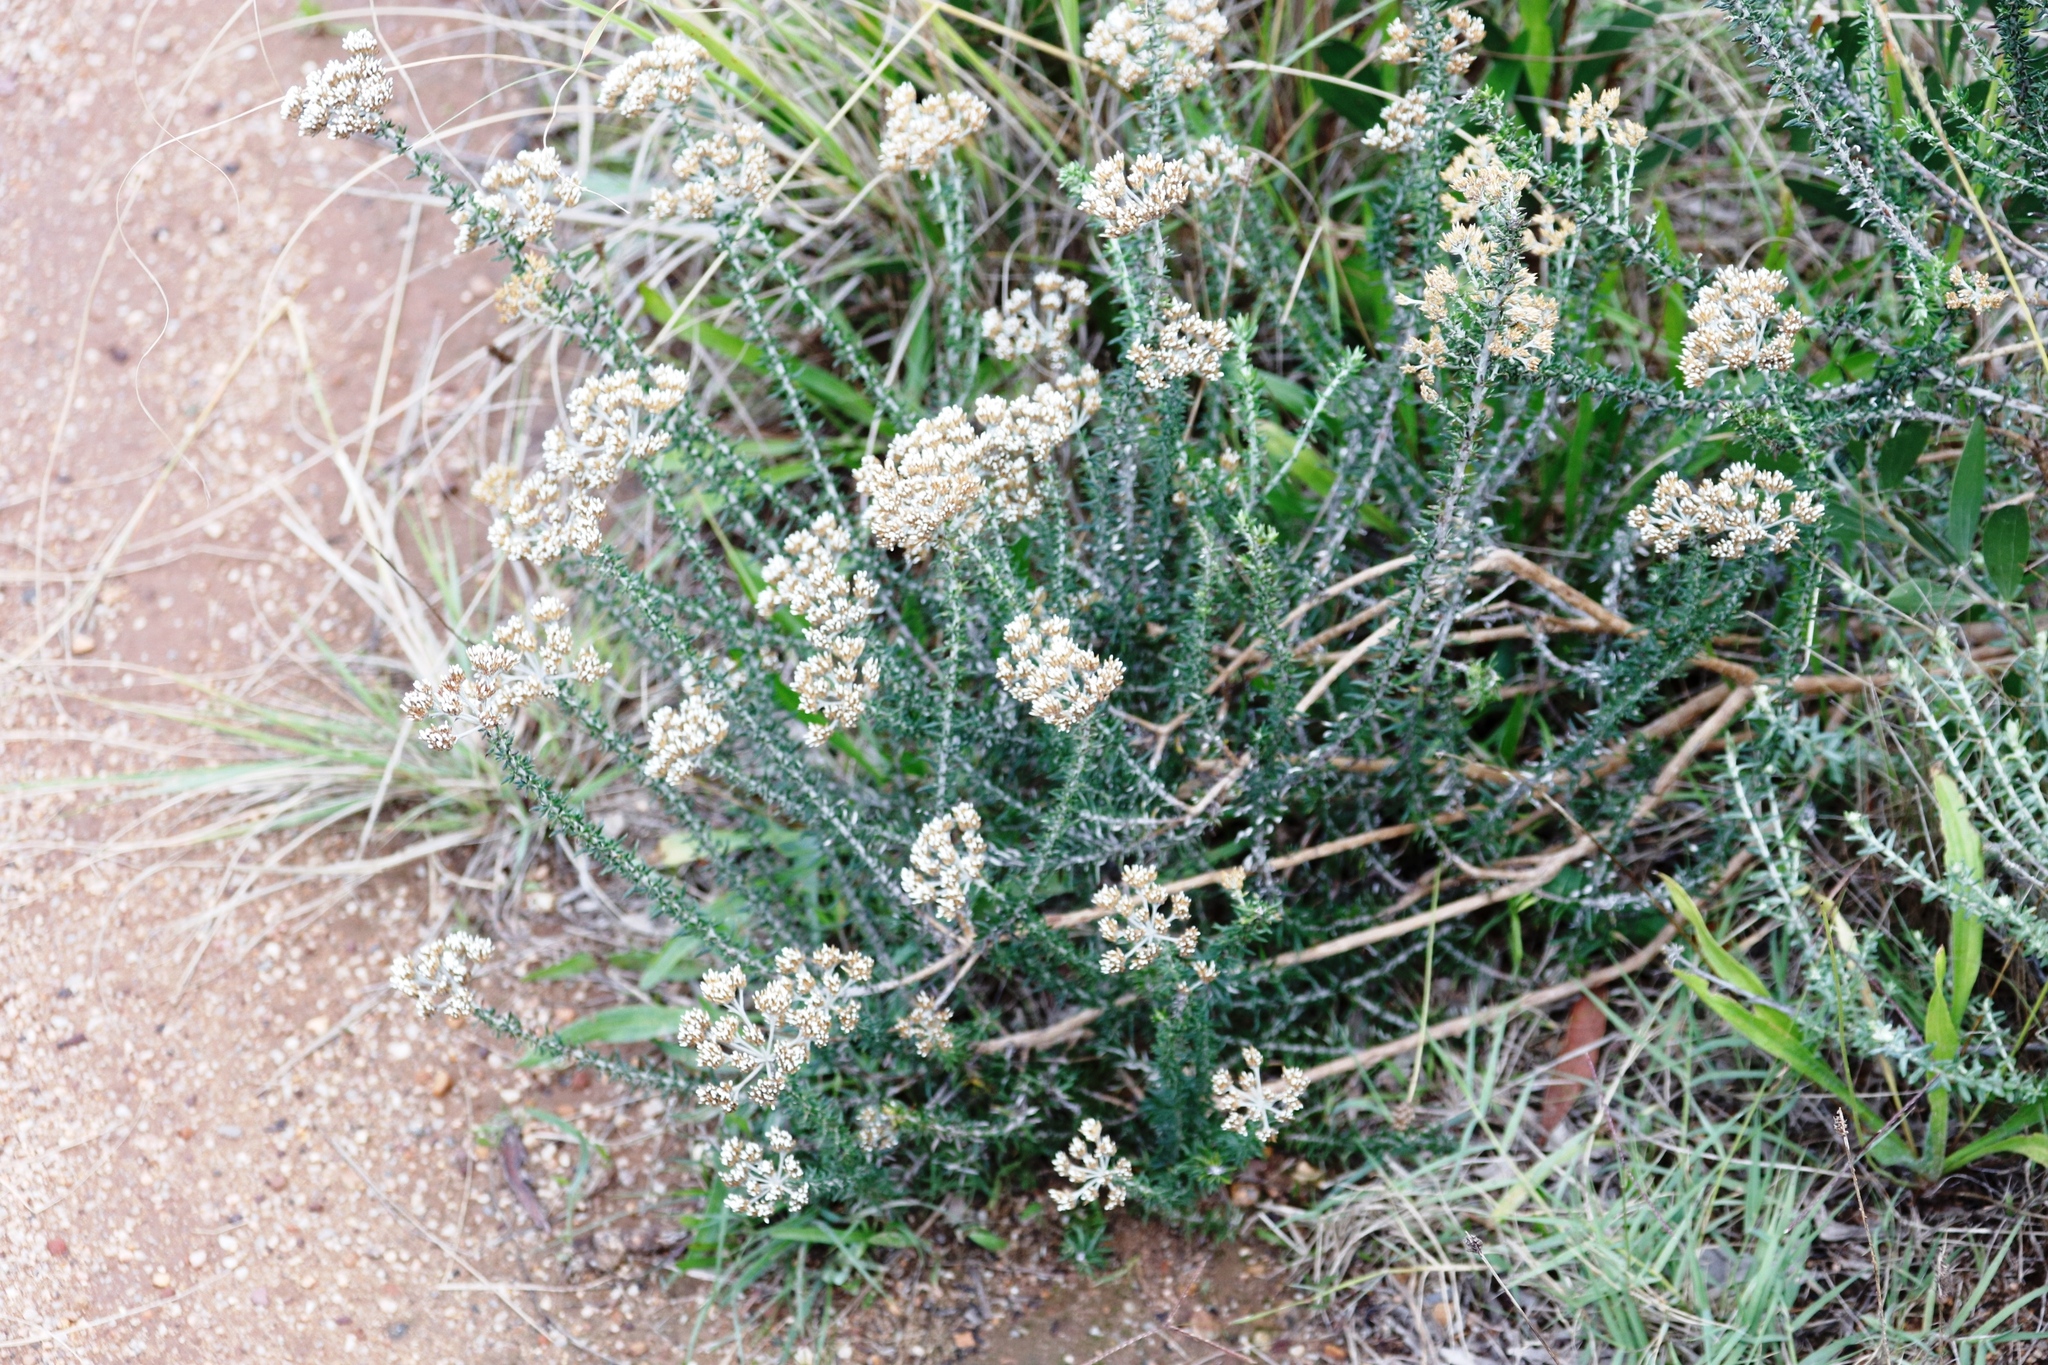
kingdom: Plantae
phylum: Tracheophyta
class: Magnoliopsida
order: Asterales
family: Asteraceae
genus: Metalasia
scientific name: Metalasia densa
